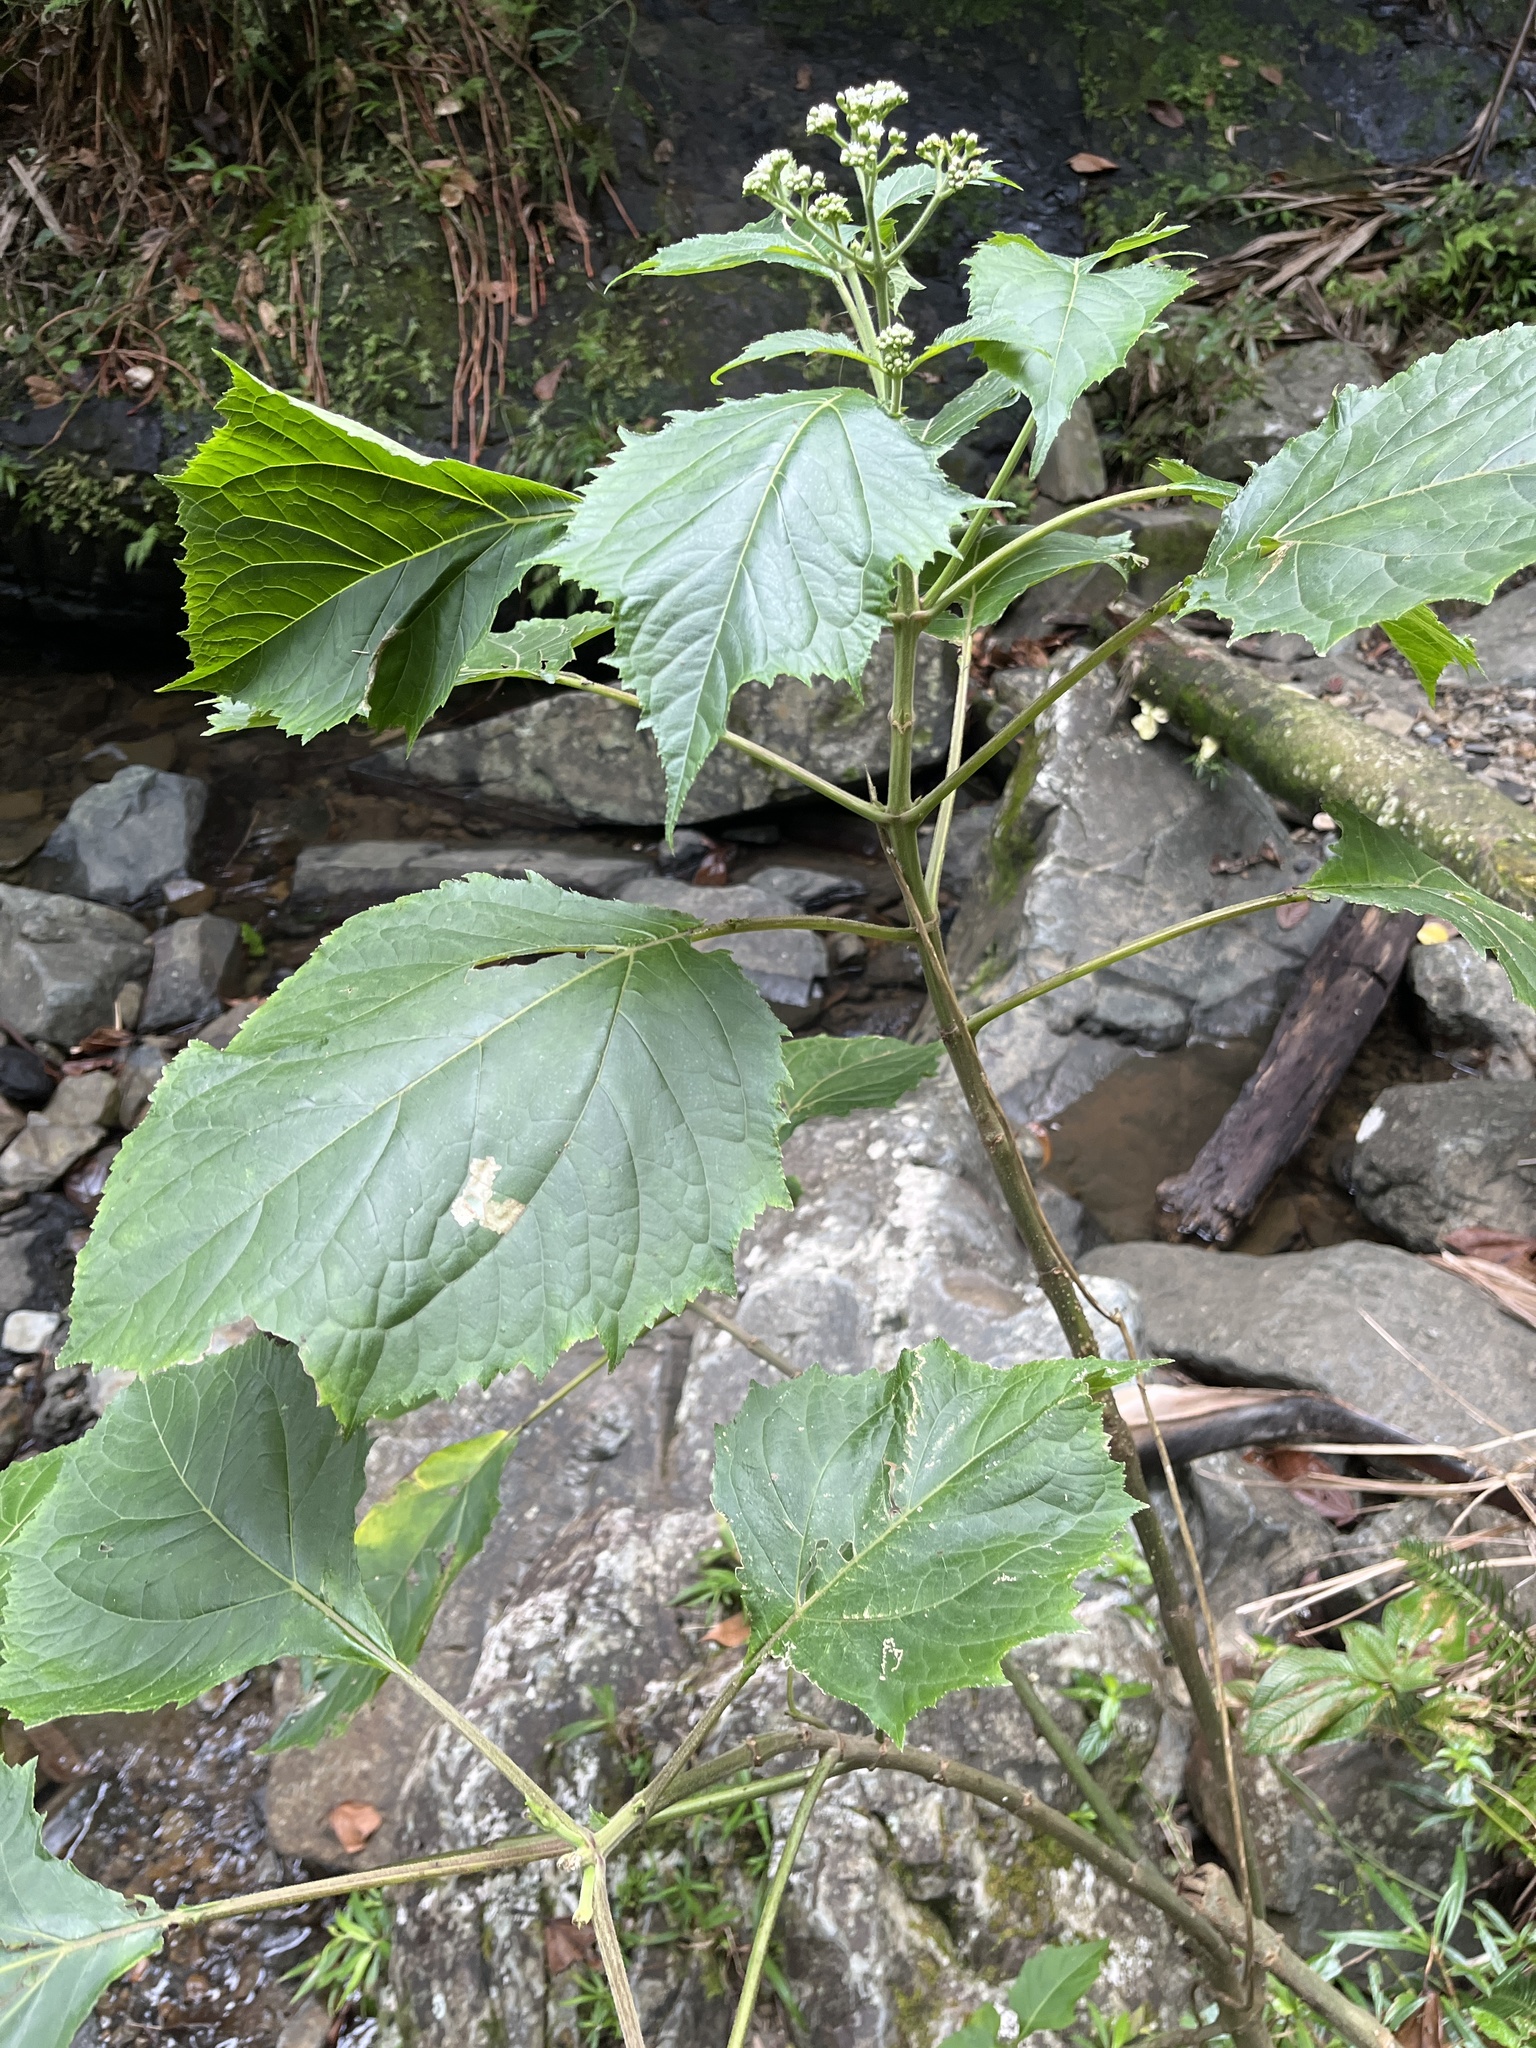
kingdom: Plantae
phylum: Tracheophyta
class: Magnoliopsida
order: Asterales
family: Asteraceae
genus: Clibadium
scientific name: Clibadium erosum
